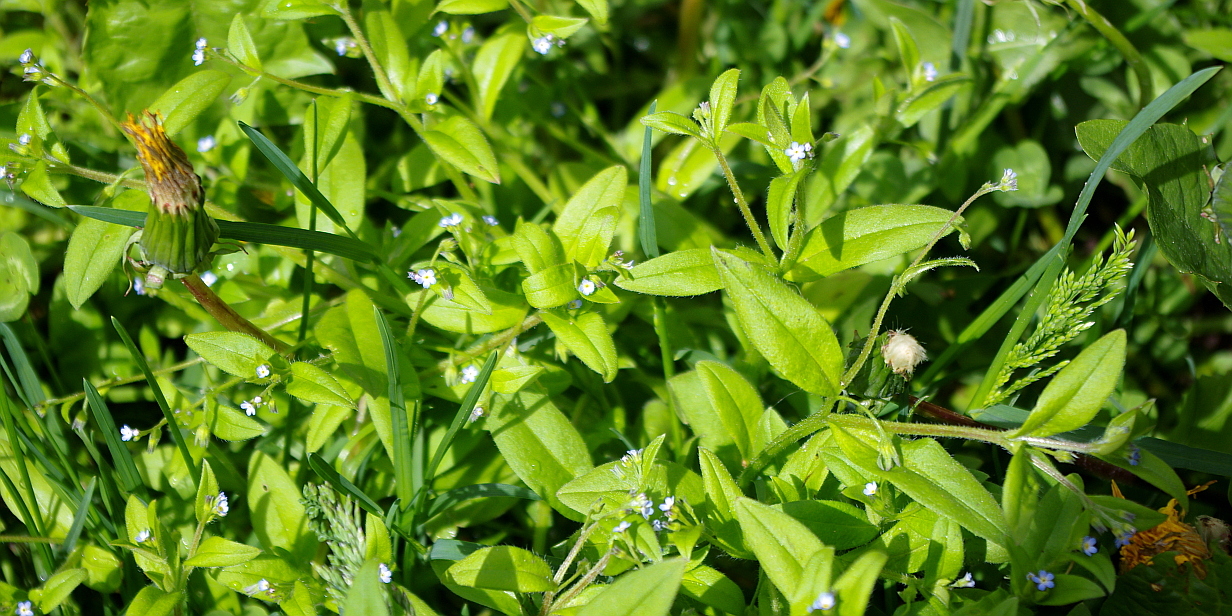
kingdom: Plantae
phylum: Tracheophyta
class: Magnoliopsida
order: Boraginales
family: Boraginaceae
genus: Myosotis
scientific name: Myosotis sparsiflora
